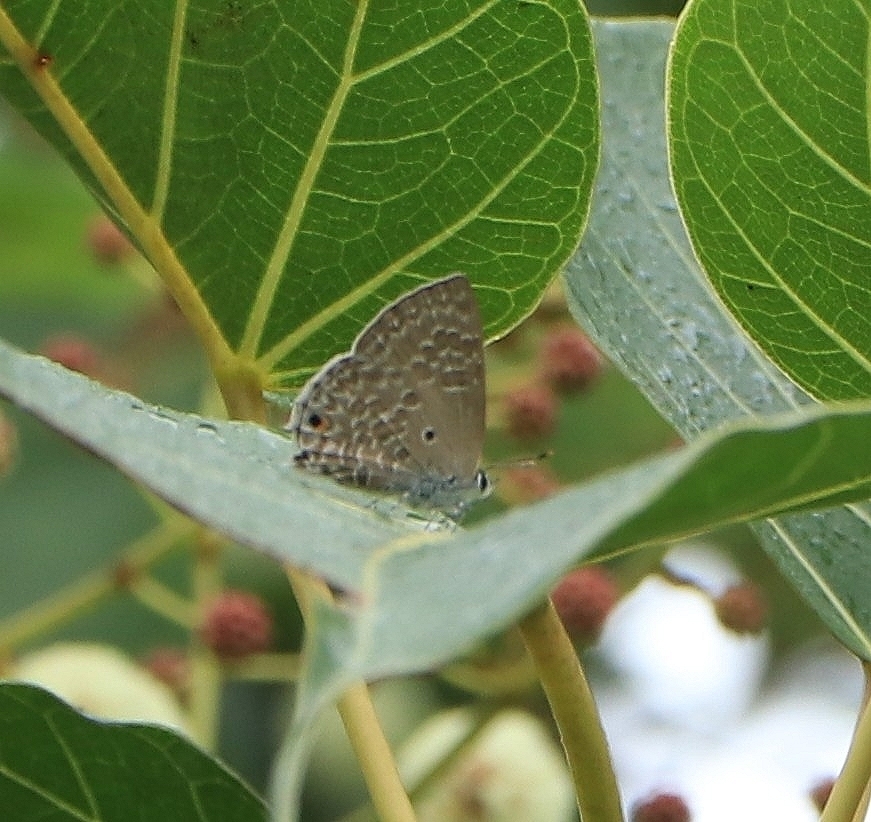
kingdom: Animalia
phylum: Arthropoda
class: Insecta
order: Lepidoptera
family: Lycaenidae
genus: Anthene
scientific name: Anthene lycaenina
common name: Pointed ciliate blue
